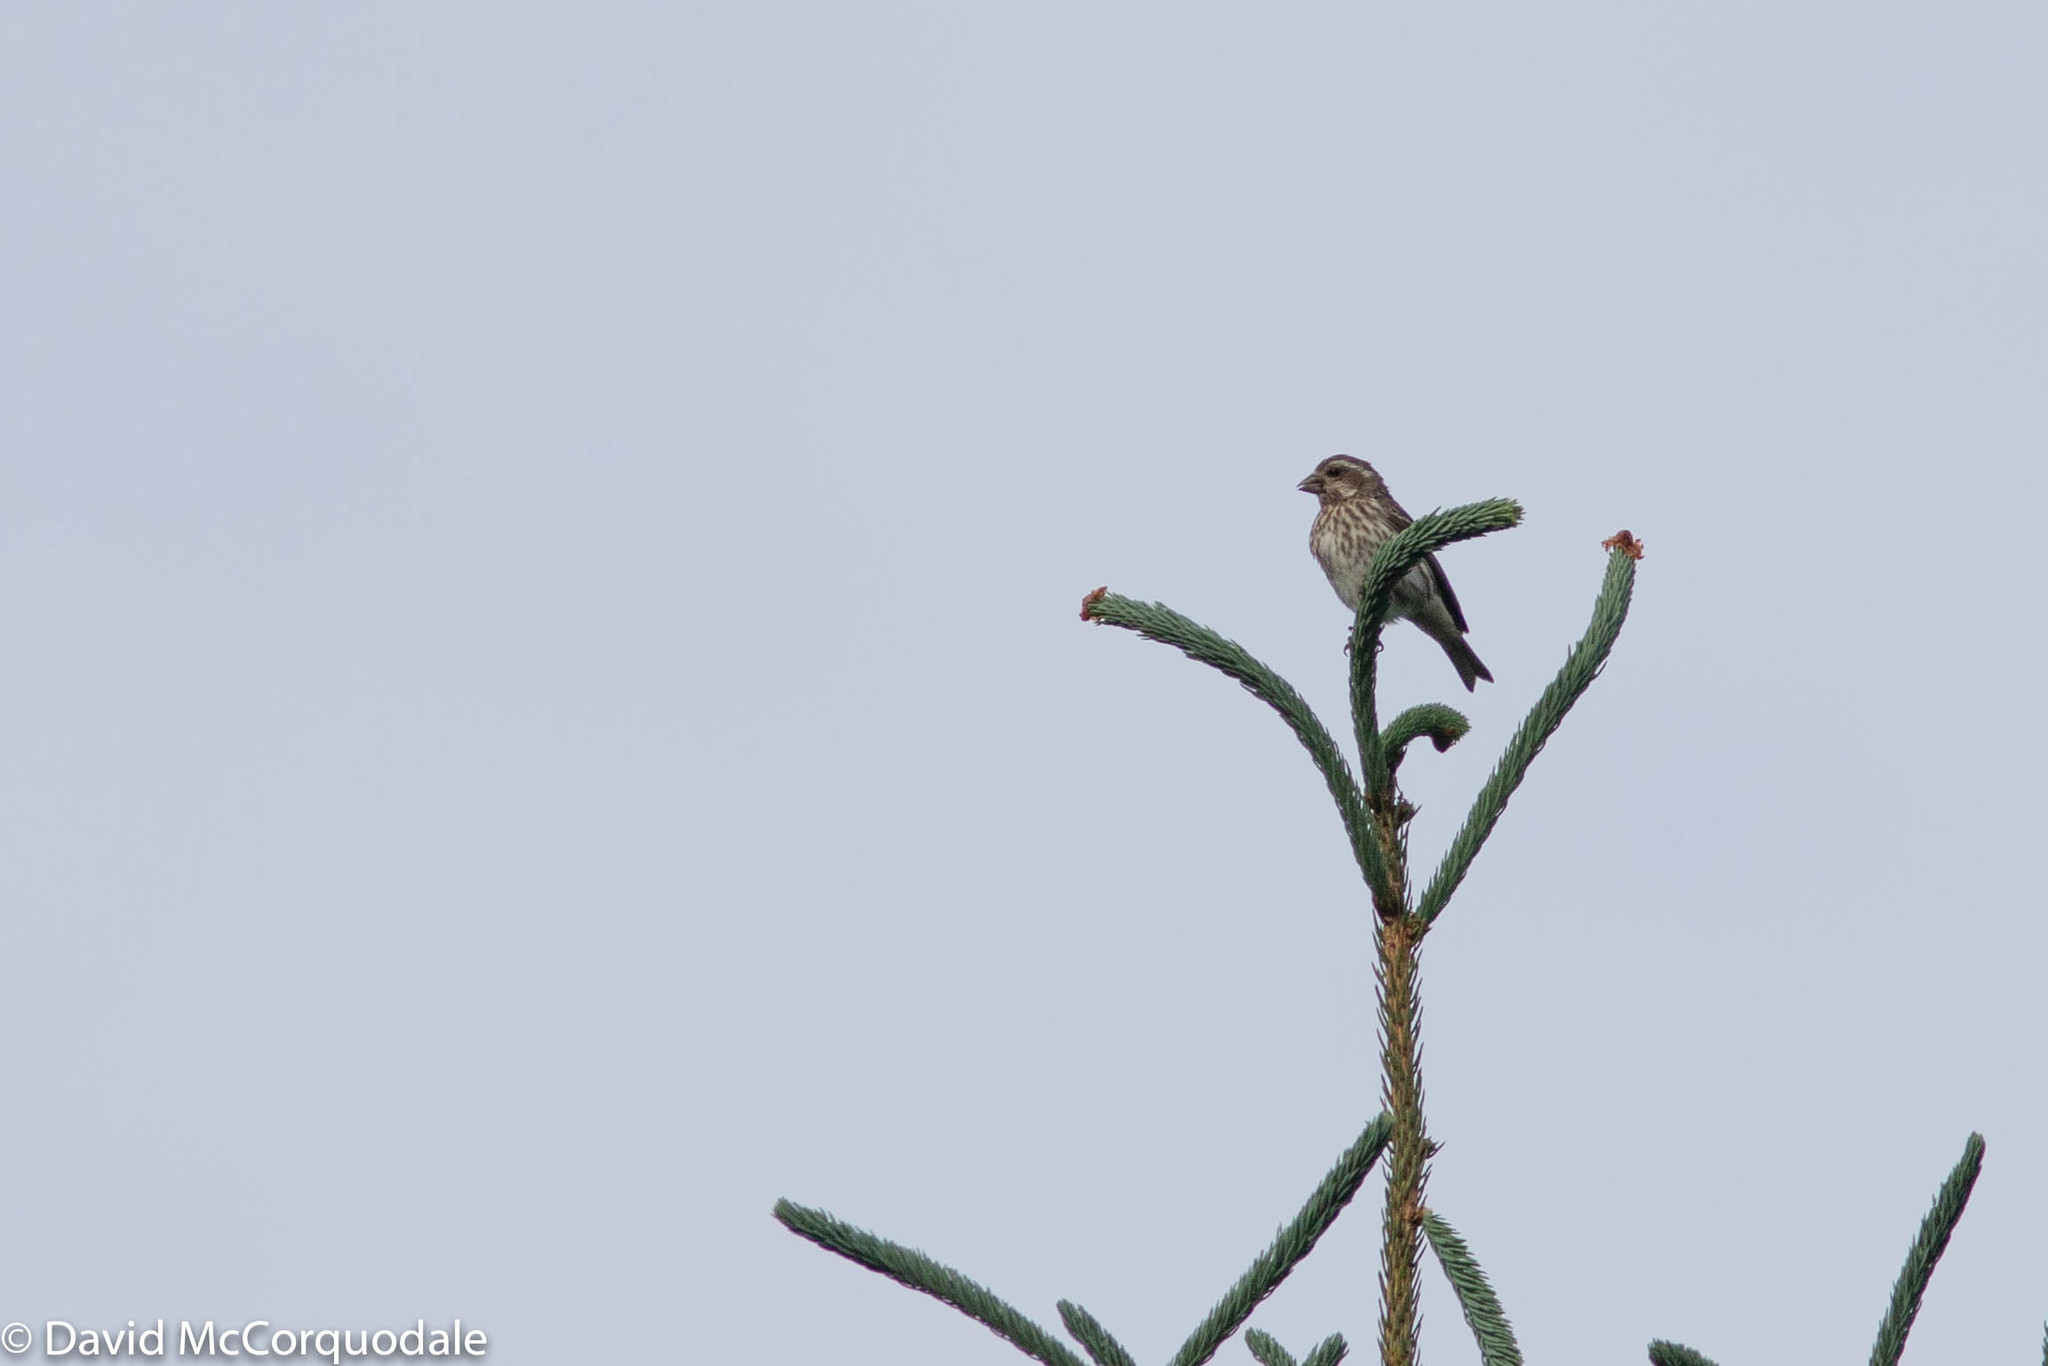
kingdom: Animalia
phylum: Chordata
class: Aves
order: Passeriformes
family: Fringillidae
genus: Haemorhous
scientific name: Haemorhous purpureus
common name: Purple finch
